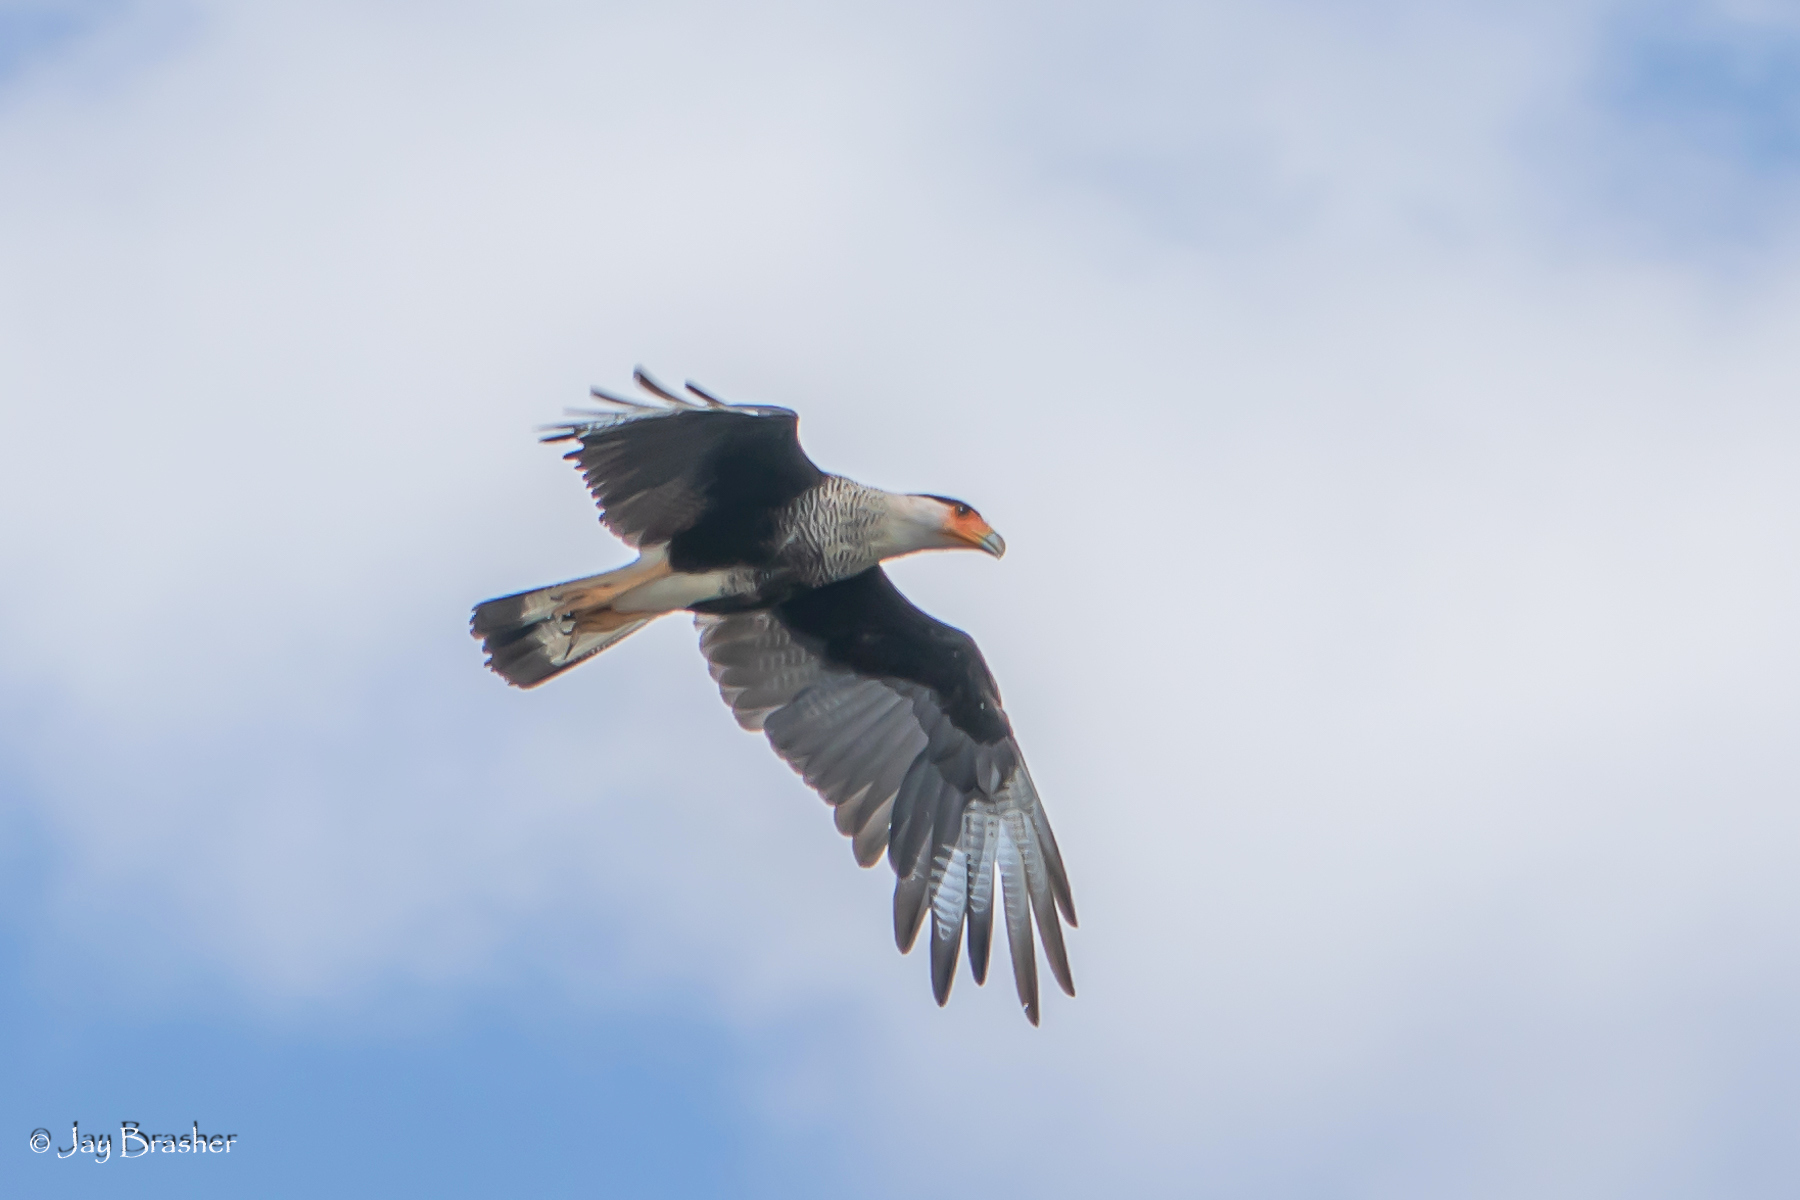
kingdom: Animalia
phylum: Chordata
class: Aves
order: Falconiformes
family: Falconidae
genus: Caracara
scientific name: Caracara plancus
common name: Southern caracara
